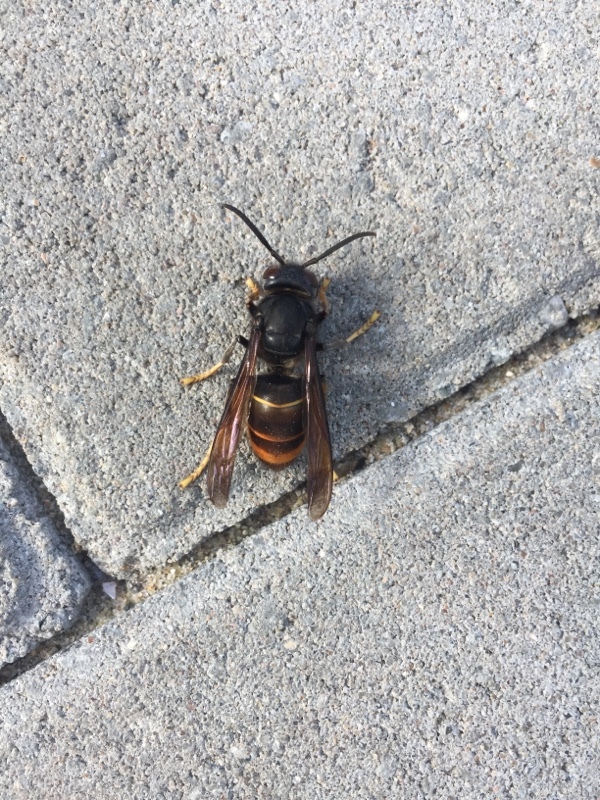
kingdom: Animalia
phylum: Arthropoda
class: Insecta
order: Hymenoptera
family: Vespidae
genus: Vespa
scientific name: Vespa velutina
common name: Asian hornet
